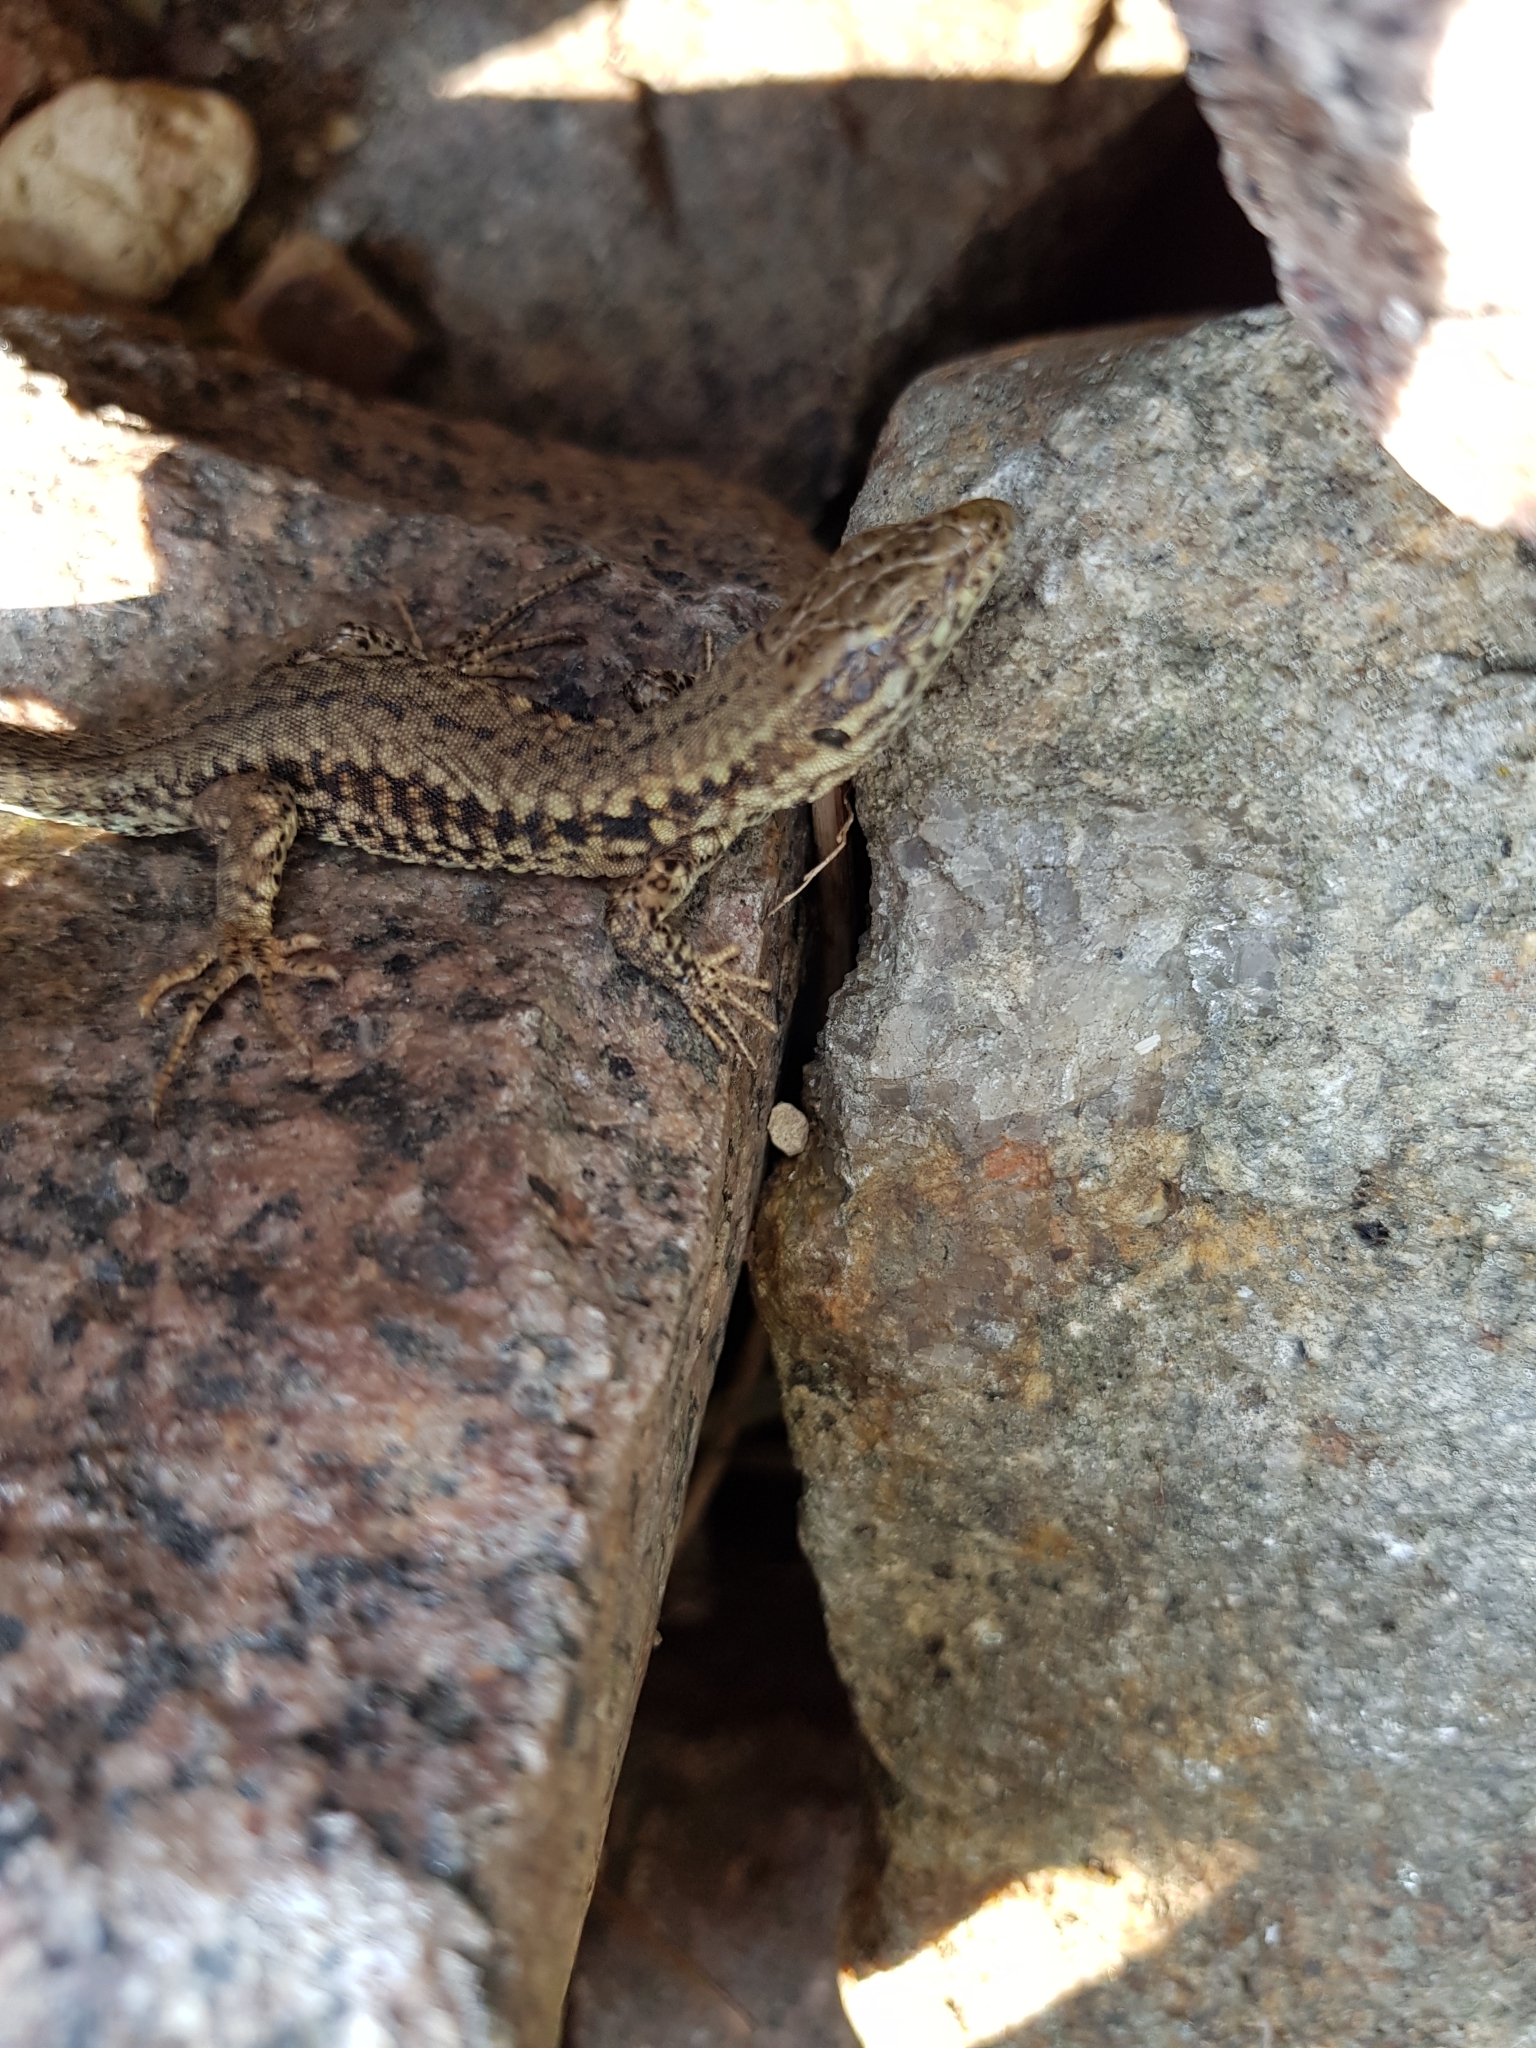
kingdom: Animalia
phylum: Chordata
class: Squamata
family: Lacertidae
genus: Podarcis
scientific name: Podarcis muralis
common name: Common wall lizard
